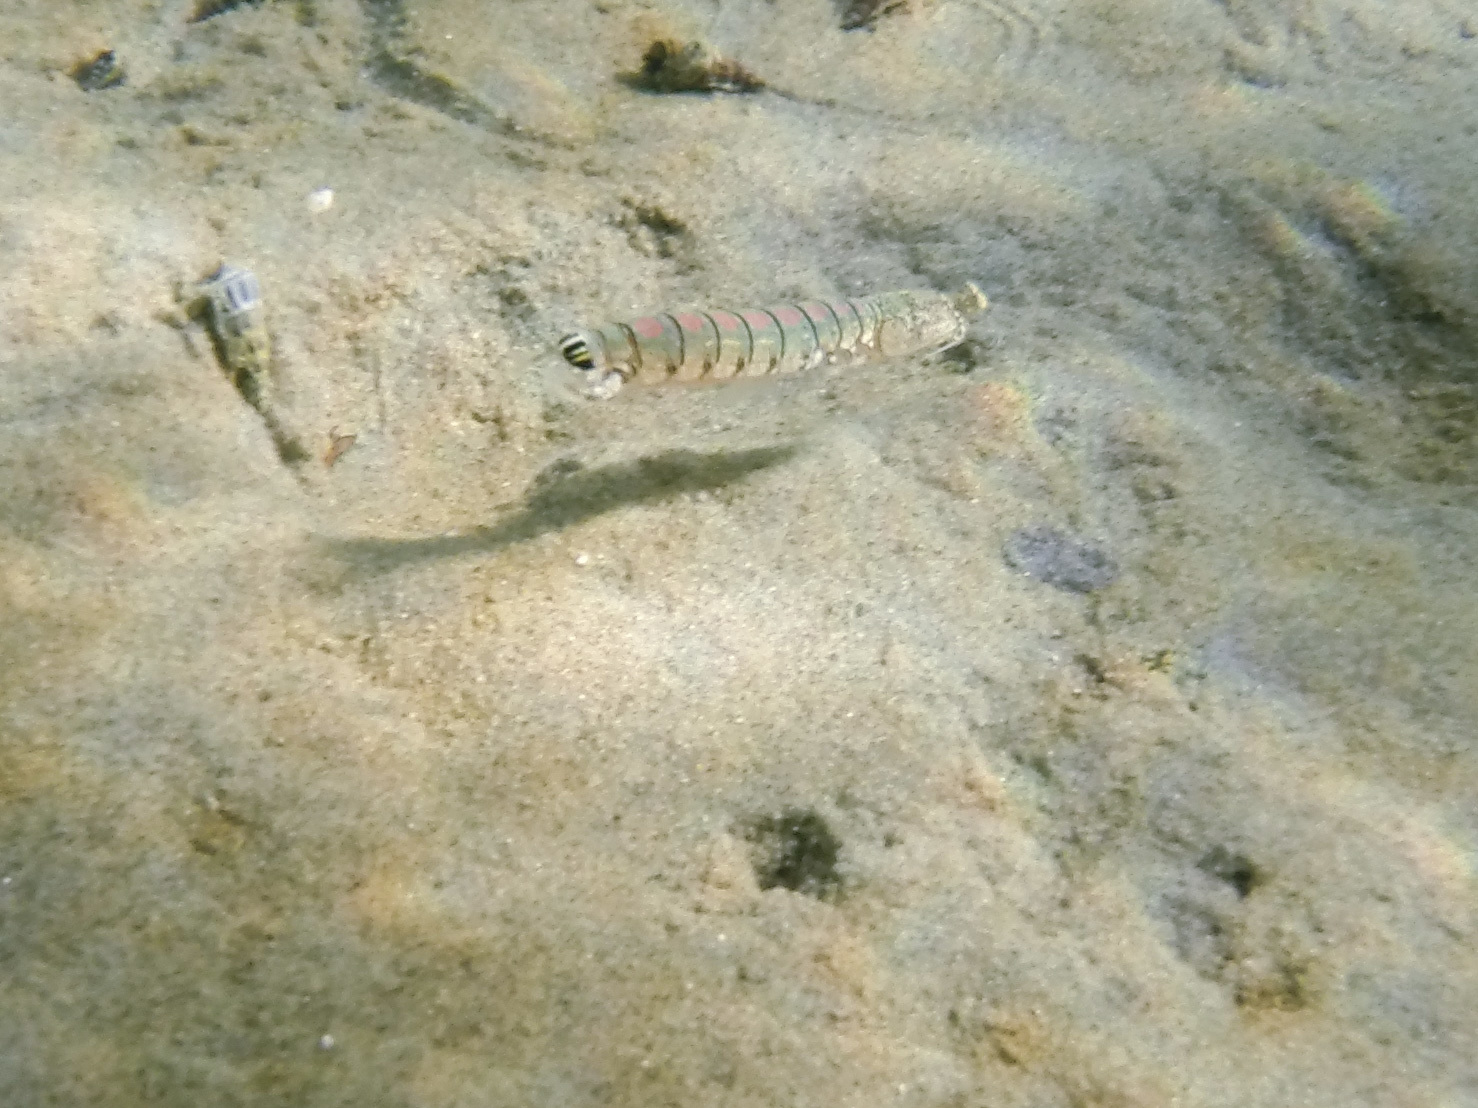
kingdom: Animalia
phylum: Arthropoda
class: Malacostraca
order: Stomatopoda
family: Tetrasquillidae
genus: Heterosquilla
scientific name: Heterosquilla tricarinata
